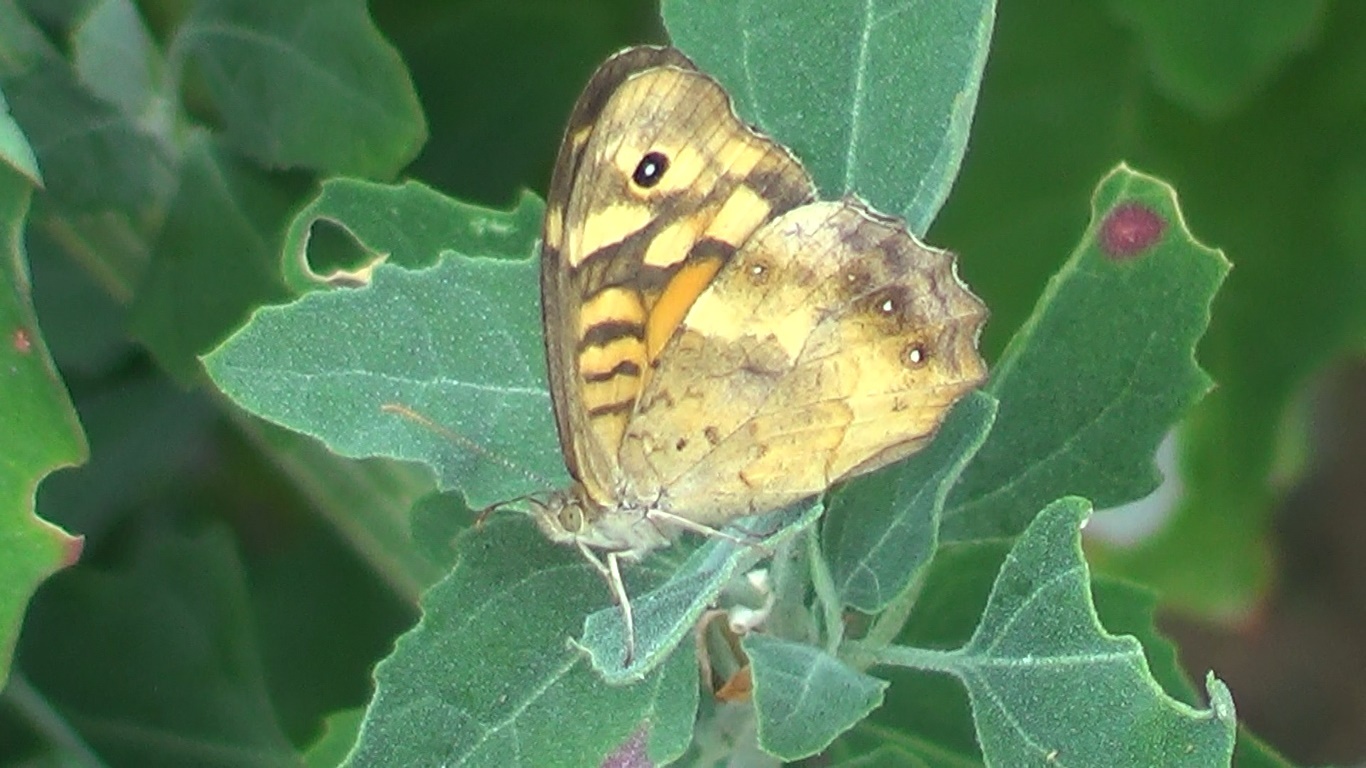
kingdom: Animalia
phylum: Arthropoda
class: Insecta
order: Lepidoptera
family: Nymphalidae
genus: Pararge
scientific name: Pararge aegeria
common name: Speckled wood
